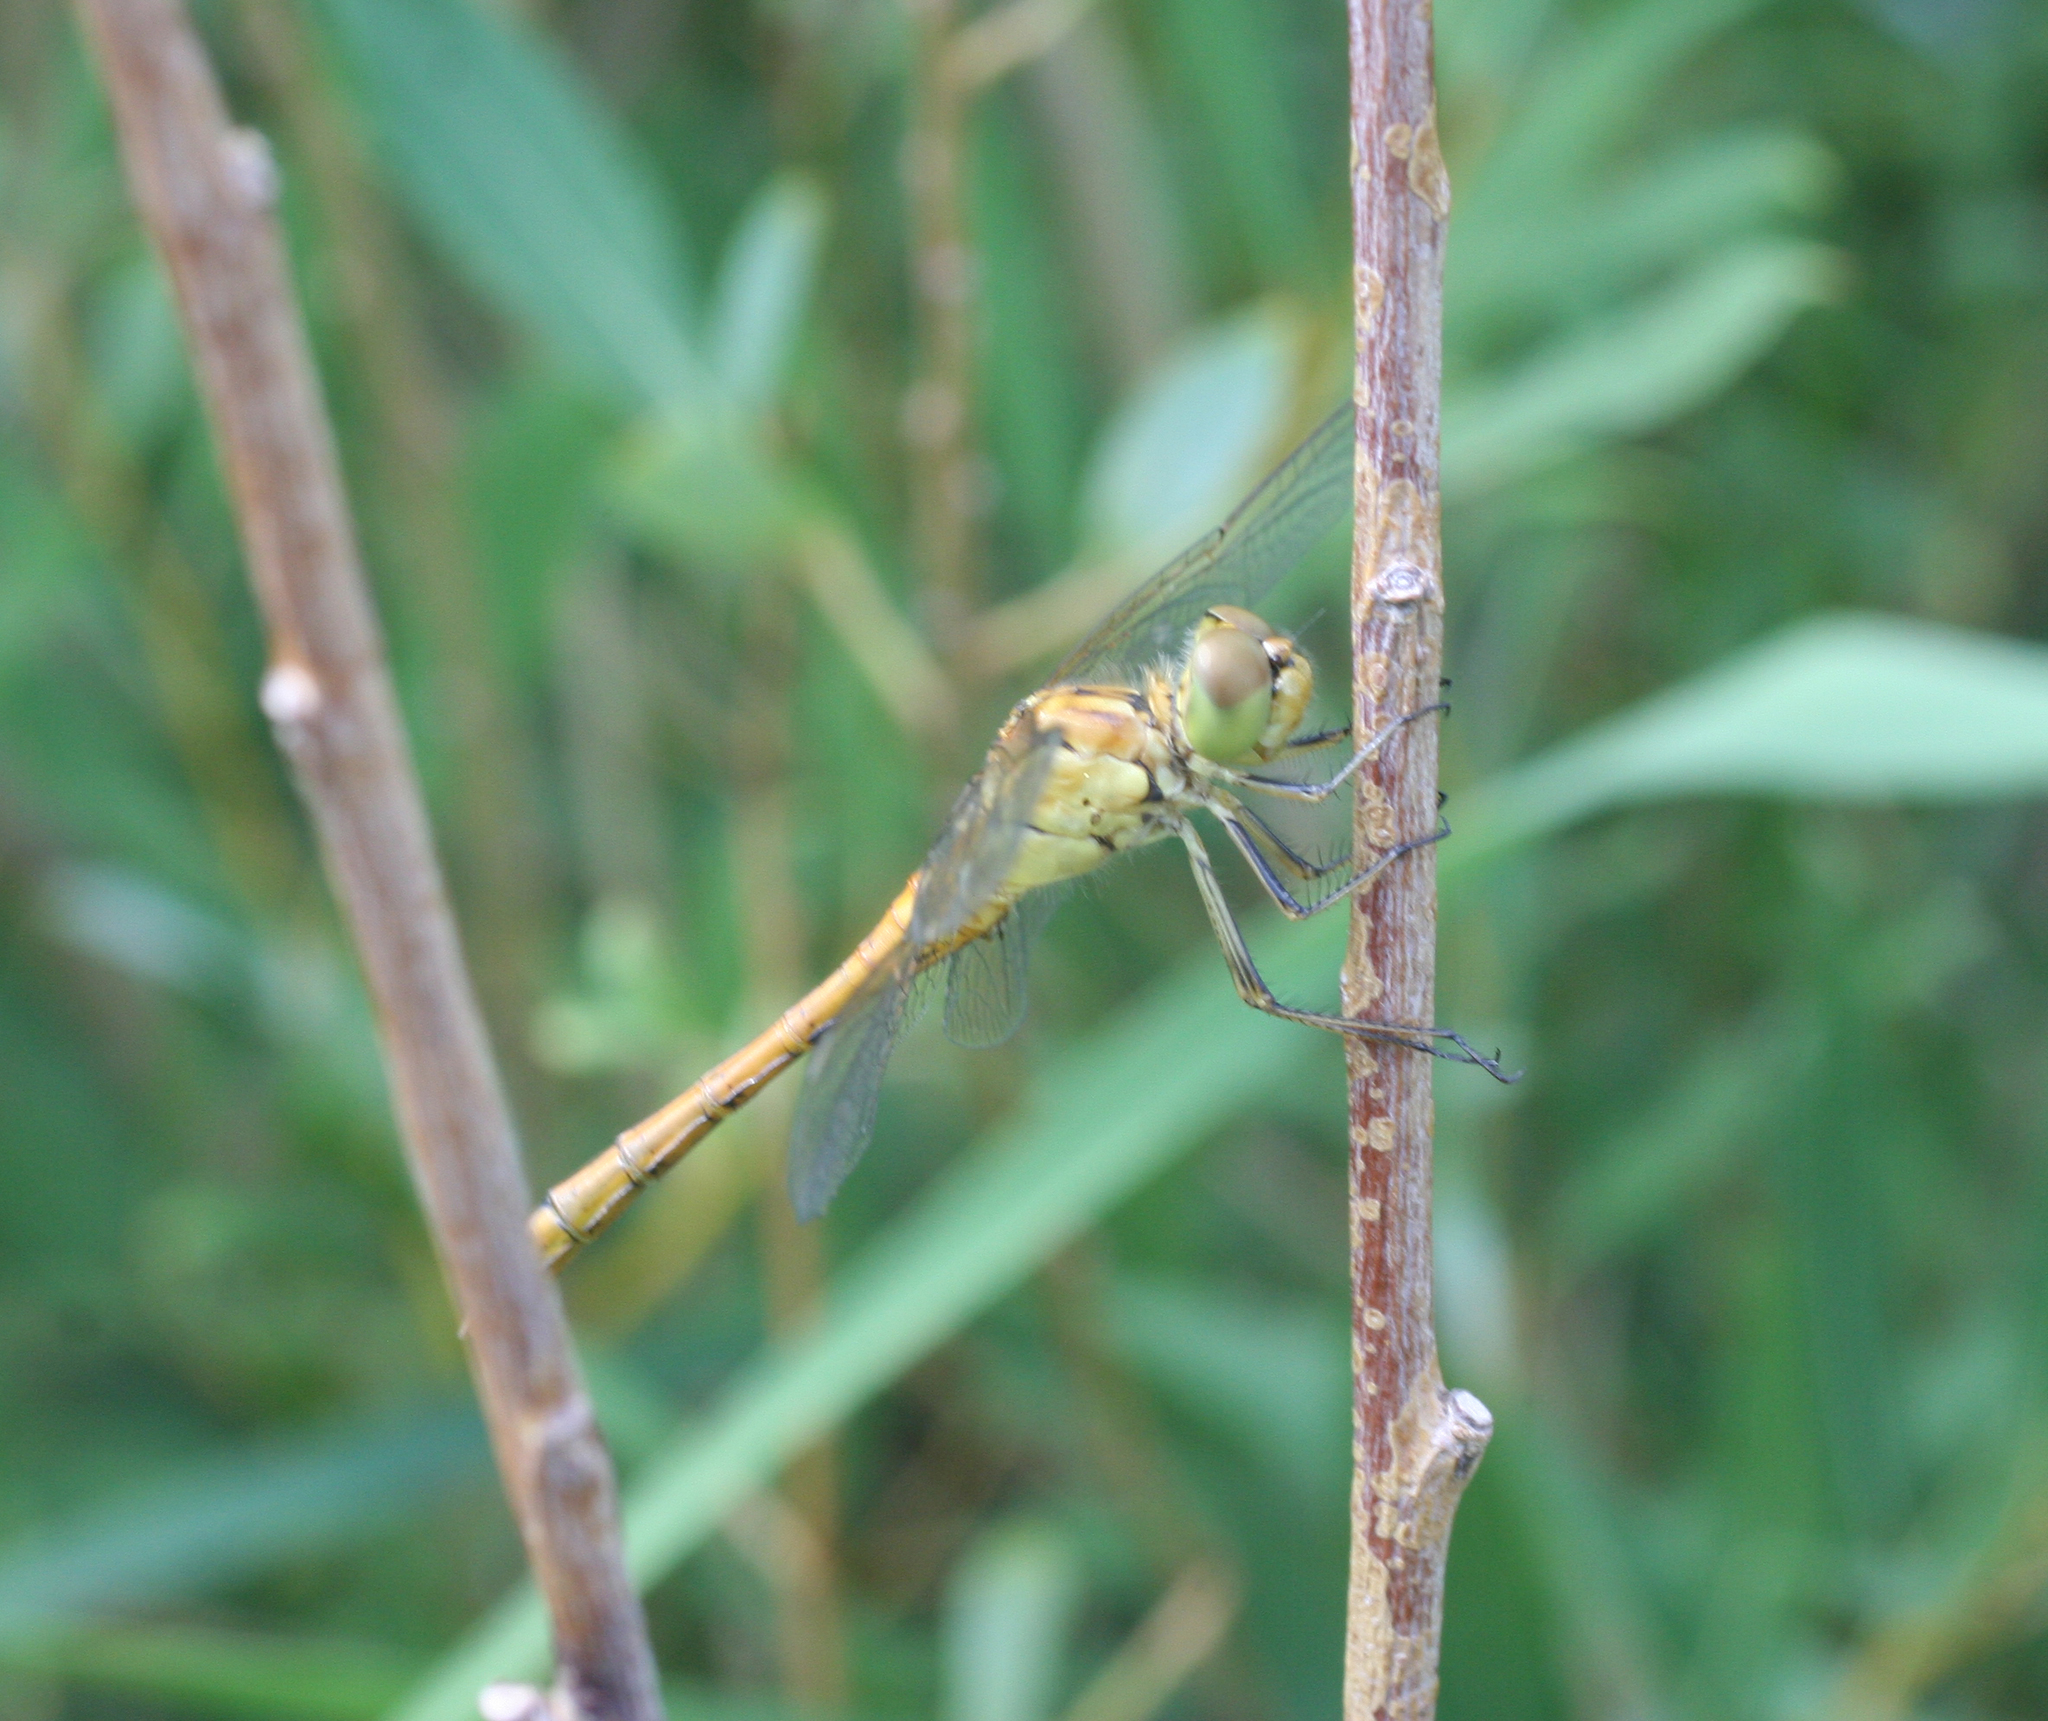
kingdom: Animalia
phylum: Arthropoda
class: Insecta
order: Odonata
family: Libellulidae
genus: Sympetrum
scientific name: Sympetrum meridionale
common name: Southern darter
